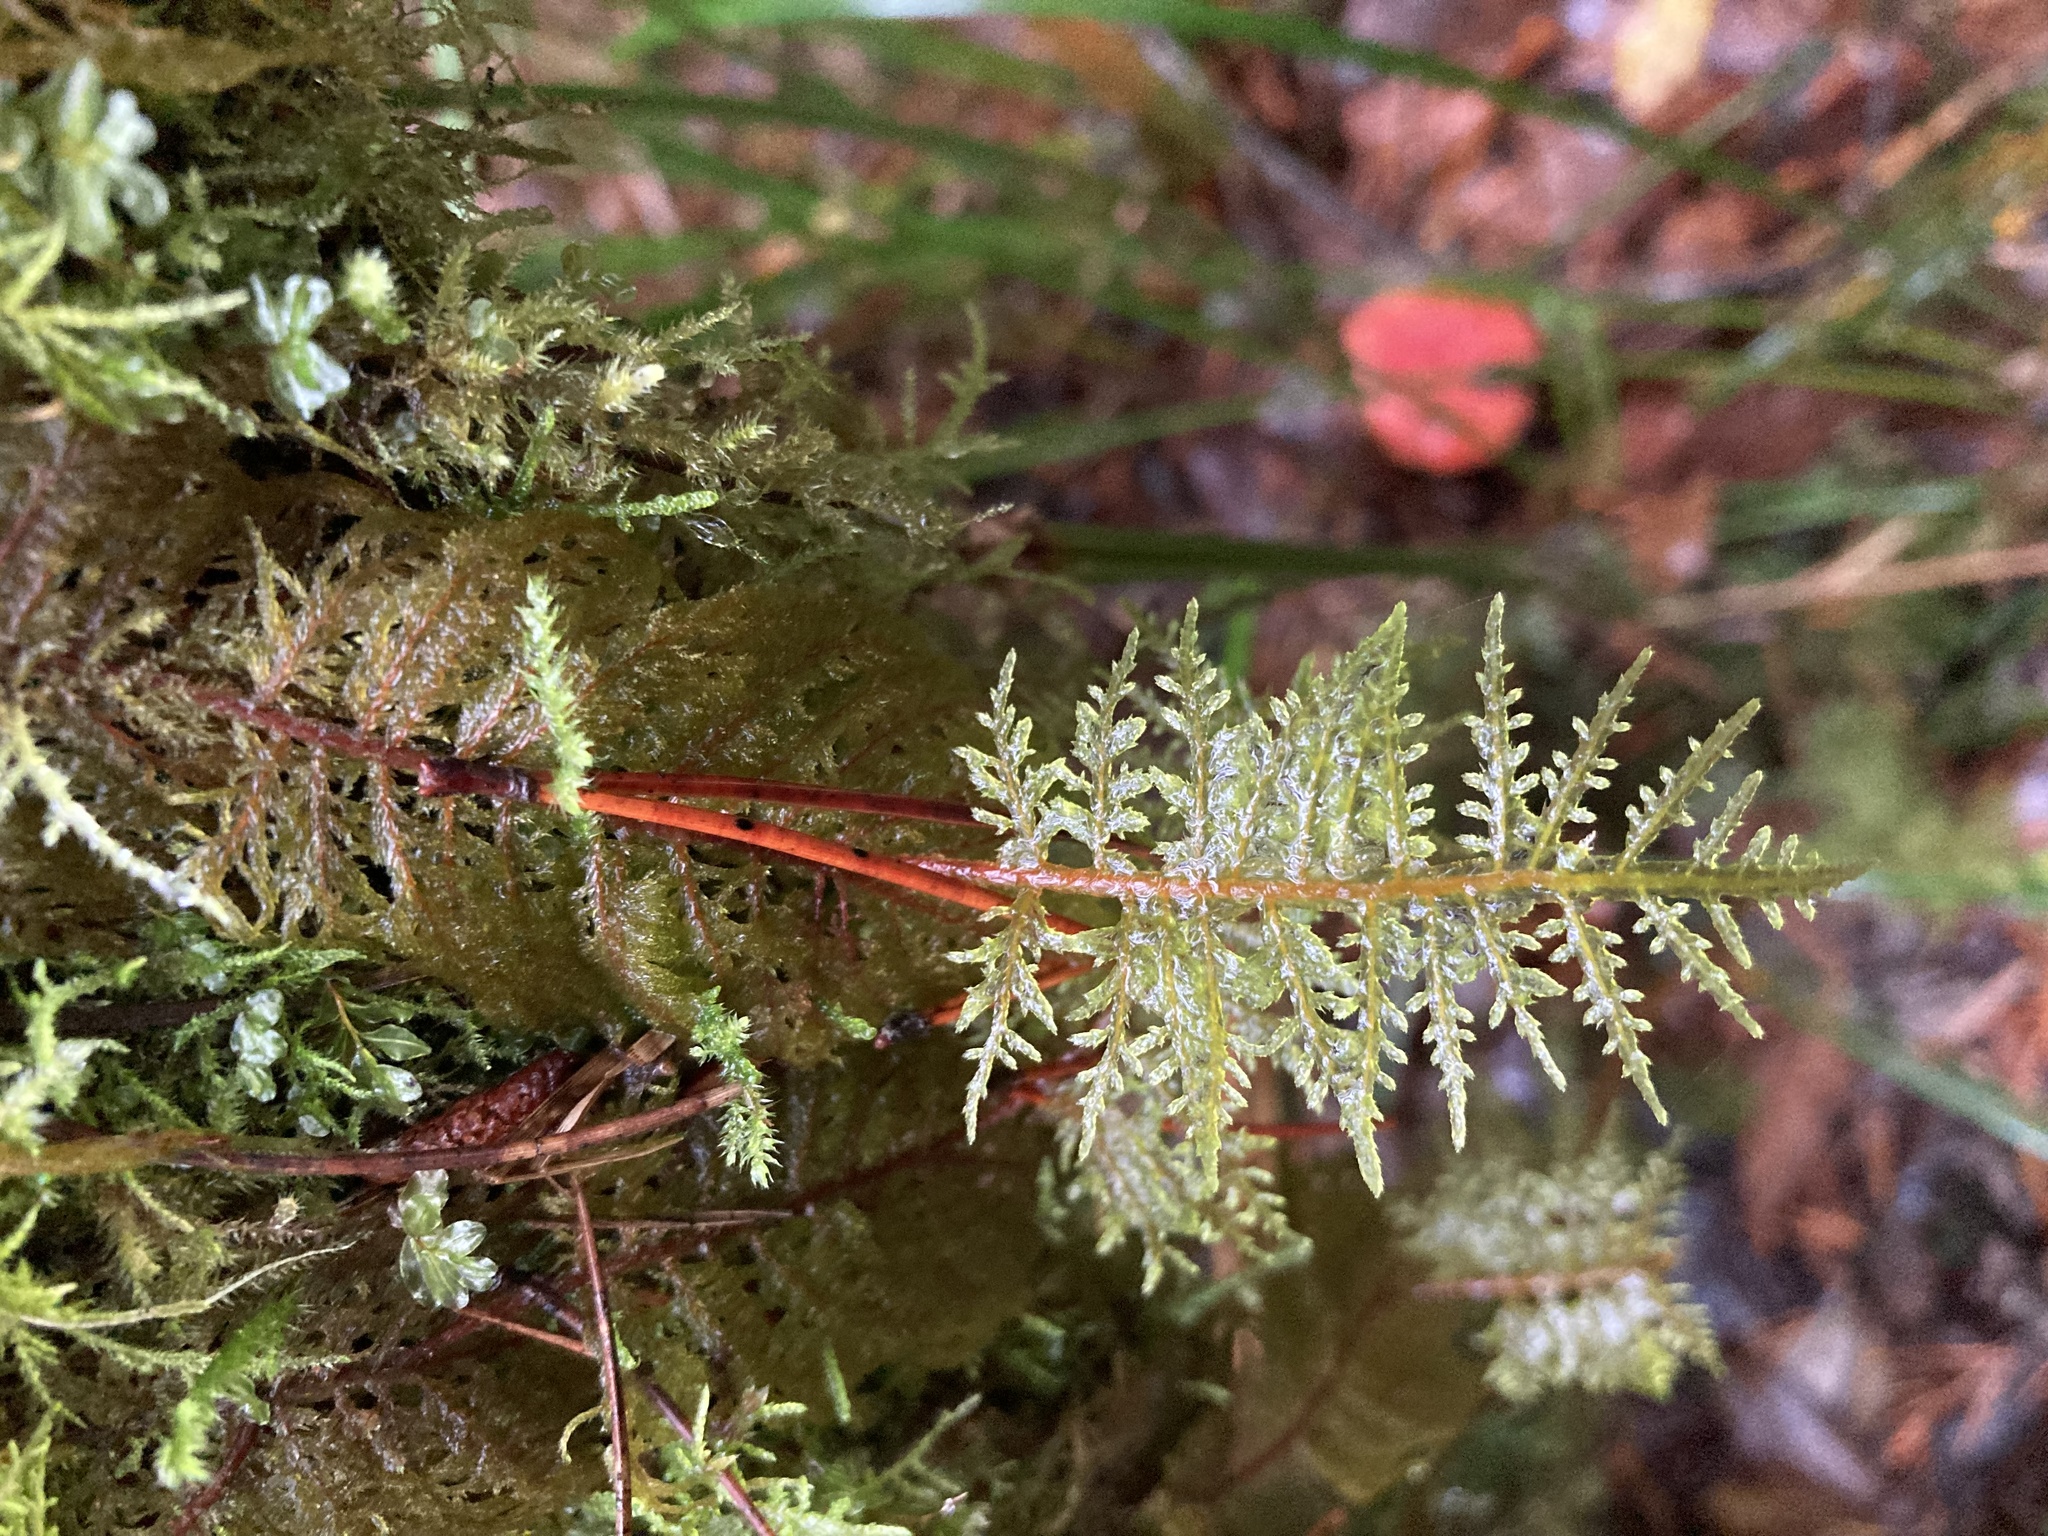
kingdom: Plantae
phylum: Bryophyta
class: Bryopsida
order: Hypnales
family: Hylocomiaceae
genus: Hylocomium
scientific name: Hylocomium splendens
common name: Stairstep moss
